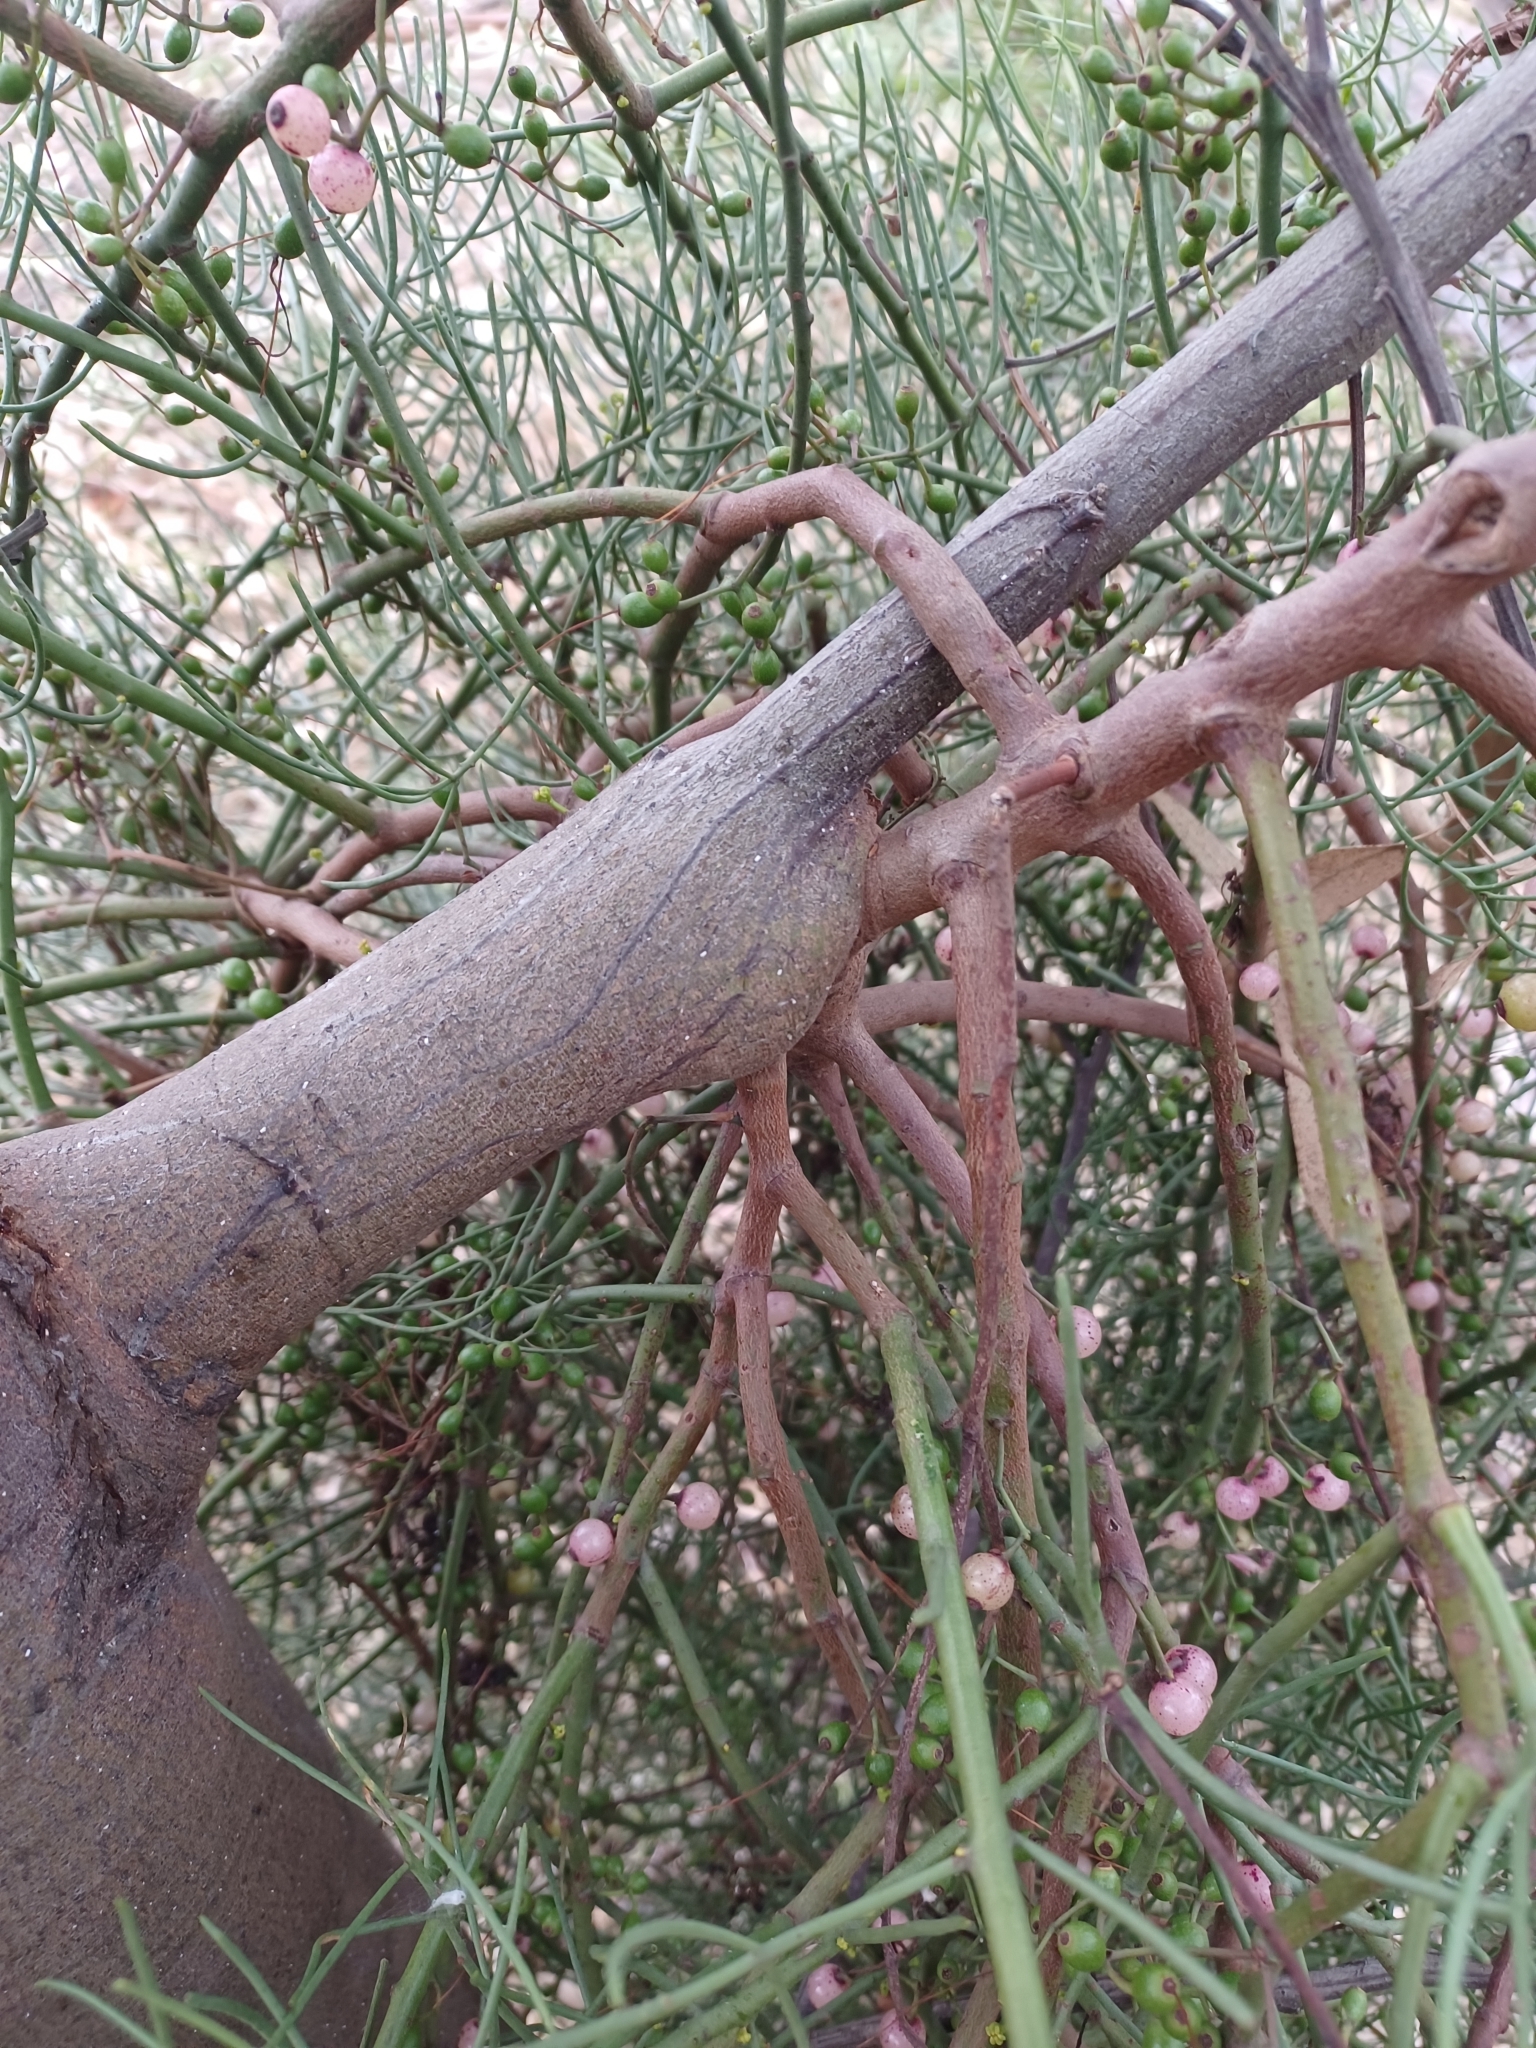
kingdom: Plantae
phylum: Tracheophyta
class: Magnoliopsida
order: Santalales
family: Loranthaceae
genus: Amyema
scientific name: Amyema preissii
